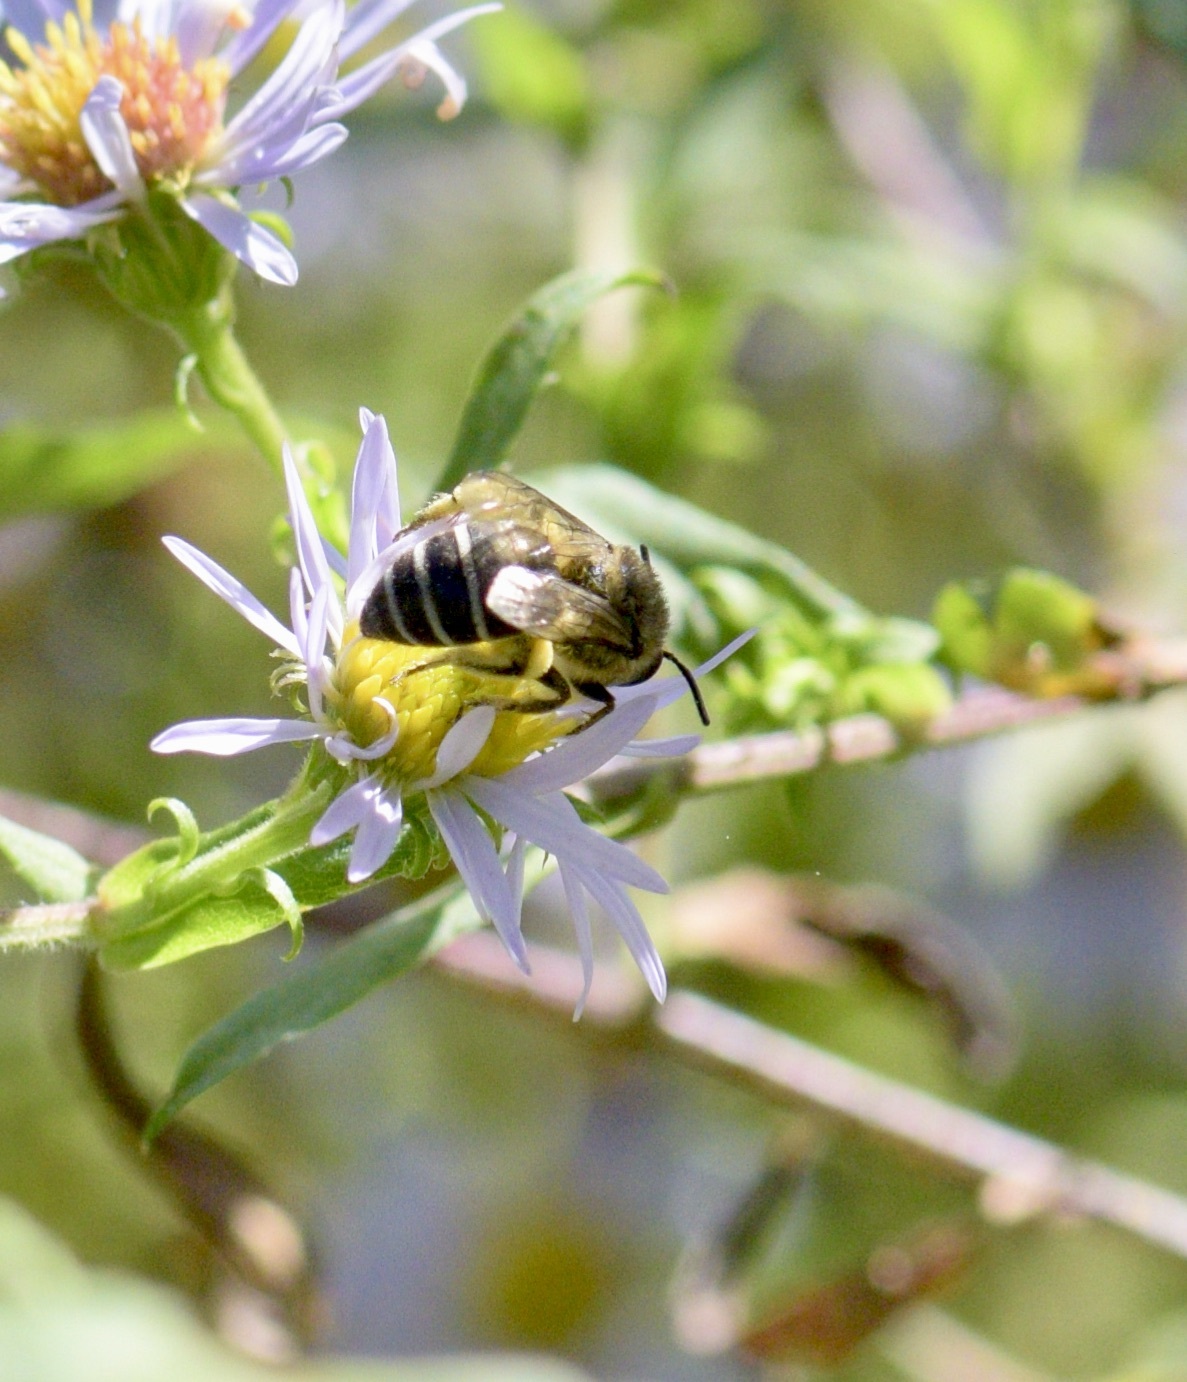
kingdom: Animalia
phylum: Arthropoda
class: Insecta
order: Hymenoptera
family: Colletidae
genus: Colletes
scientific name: Colletes compactus
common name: Aster cellophane bee
